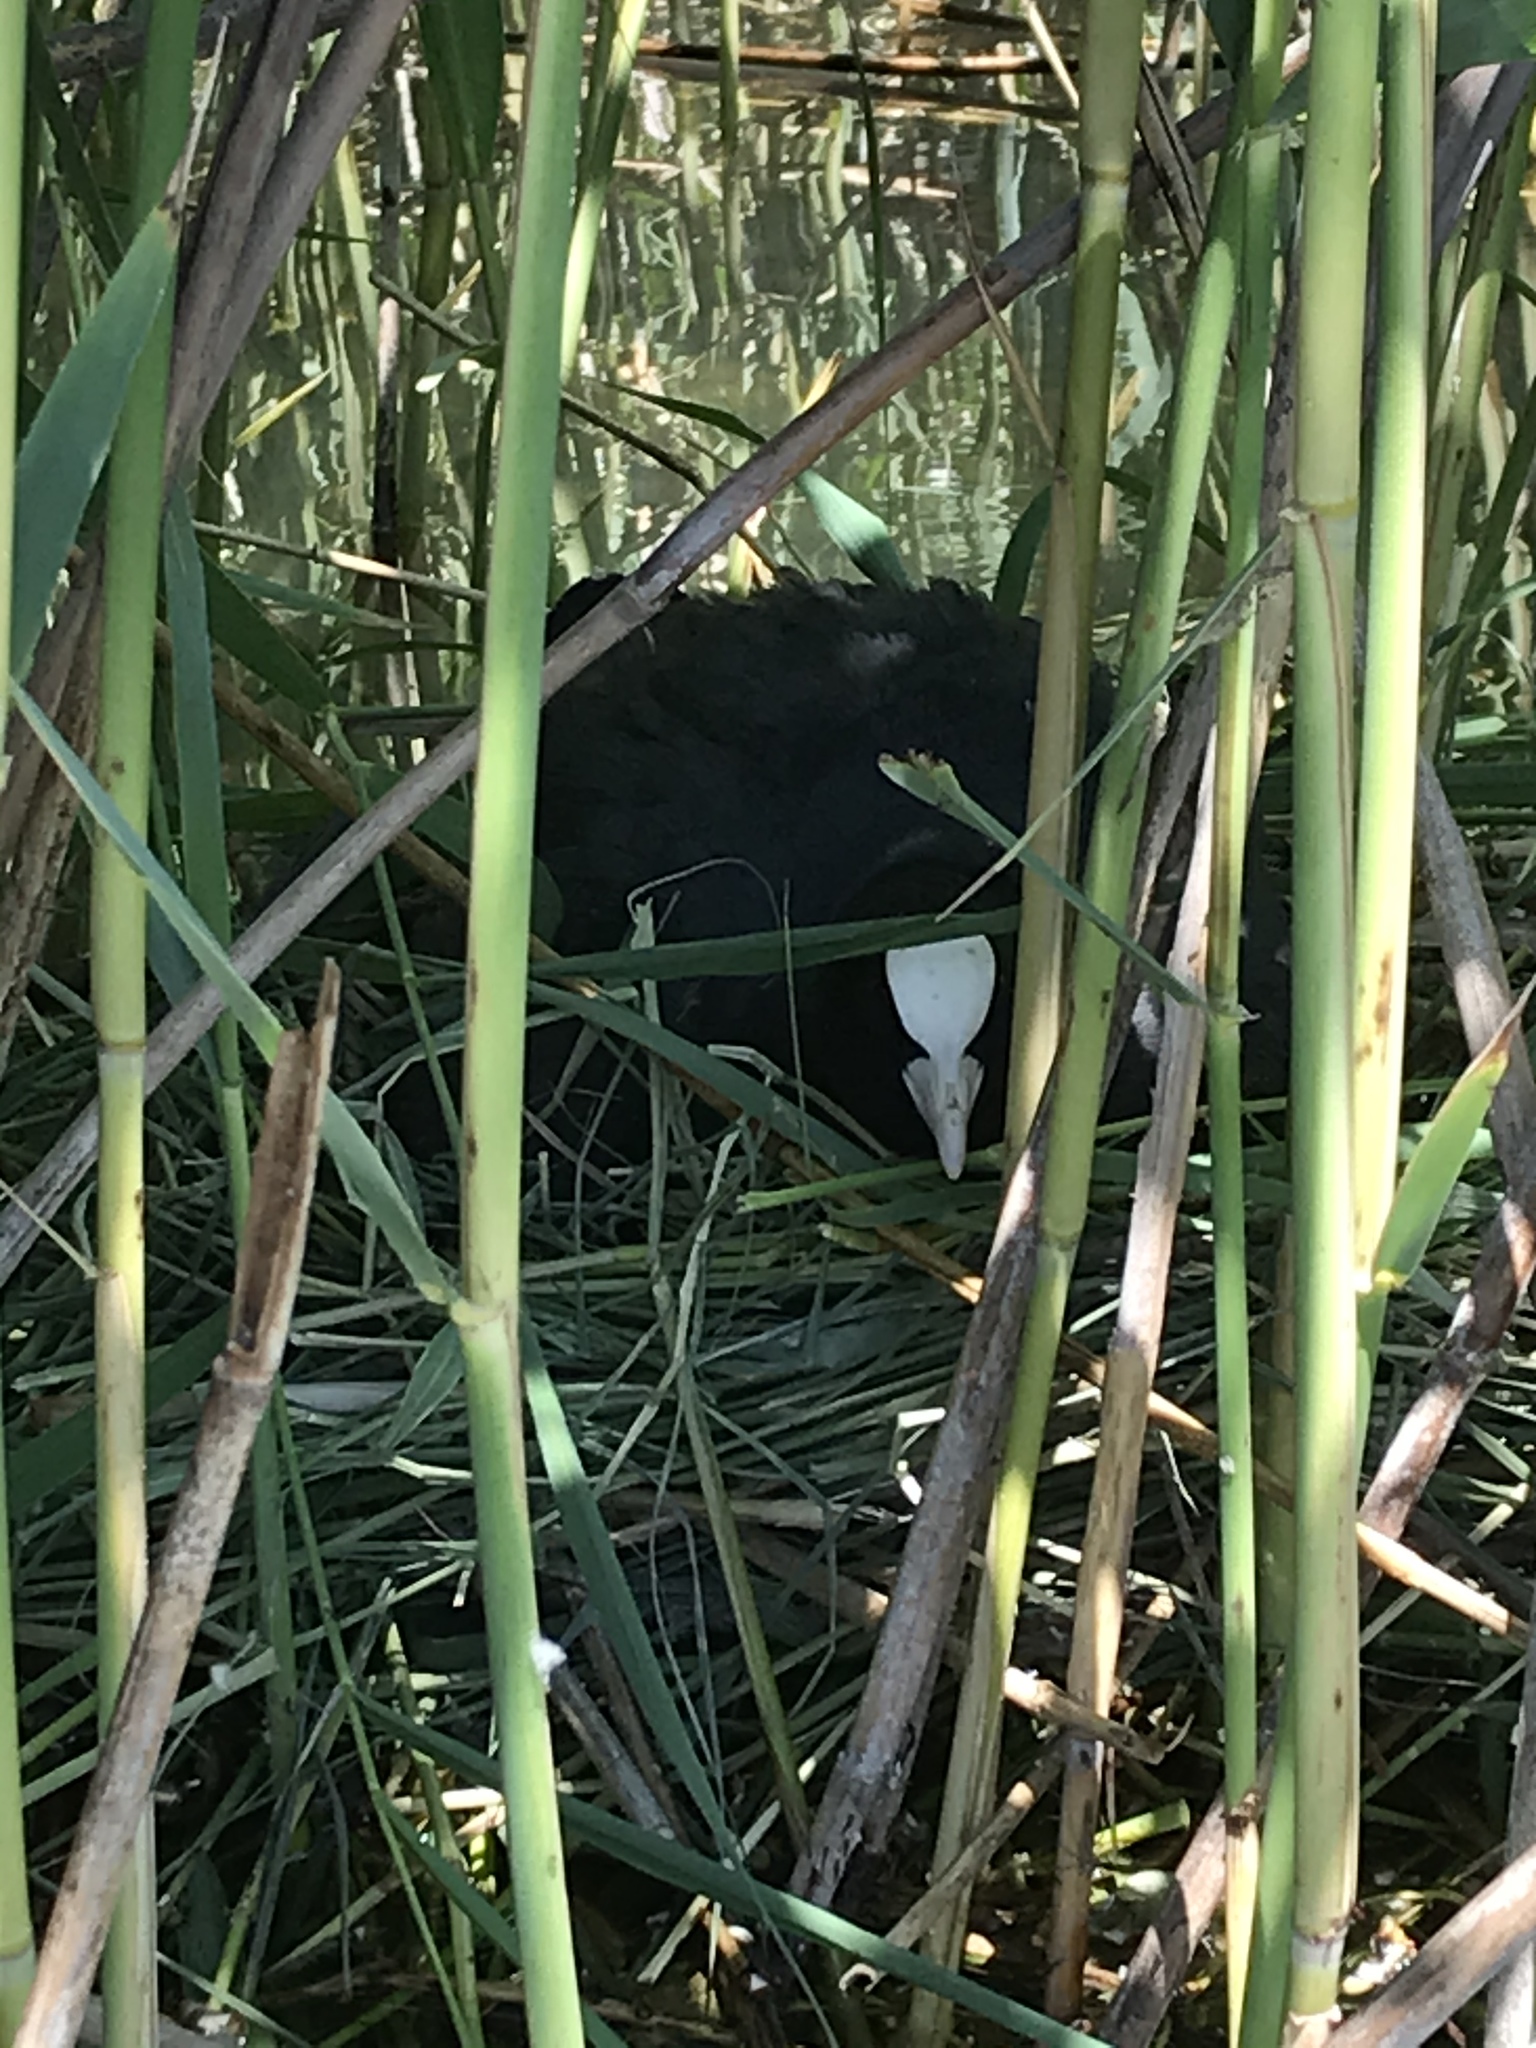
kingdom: Animalia
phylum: Chordata
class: Aves
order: Gruiformes
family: Rallidae
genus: Fulica
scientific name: Fulica atra
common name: Eurasian coot
